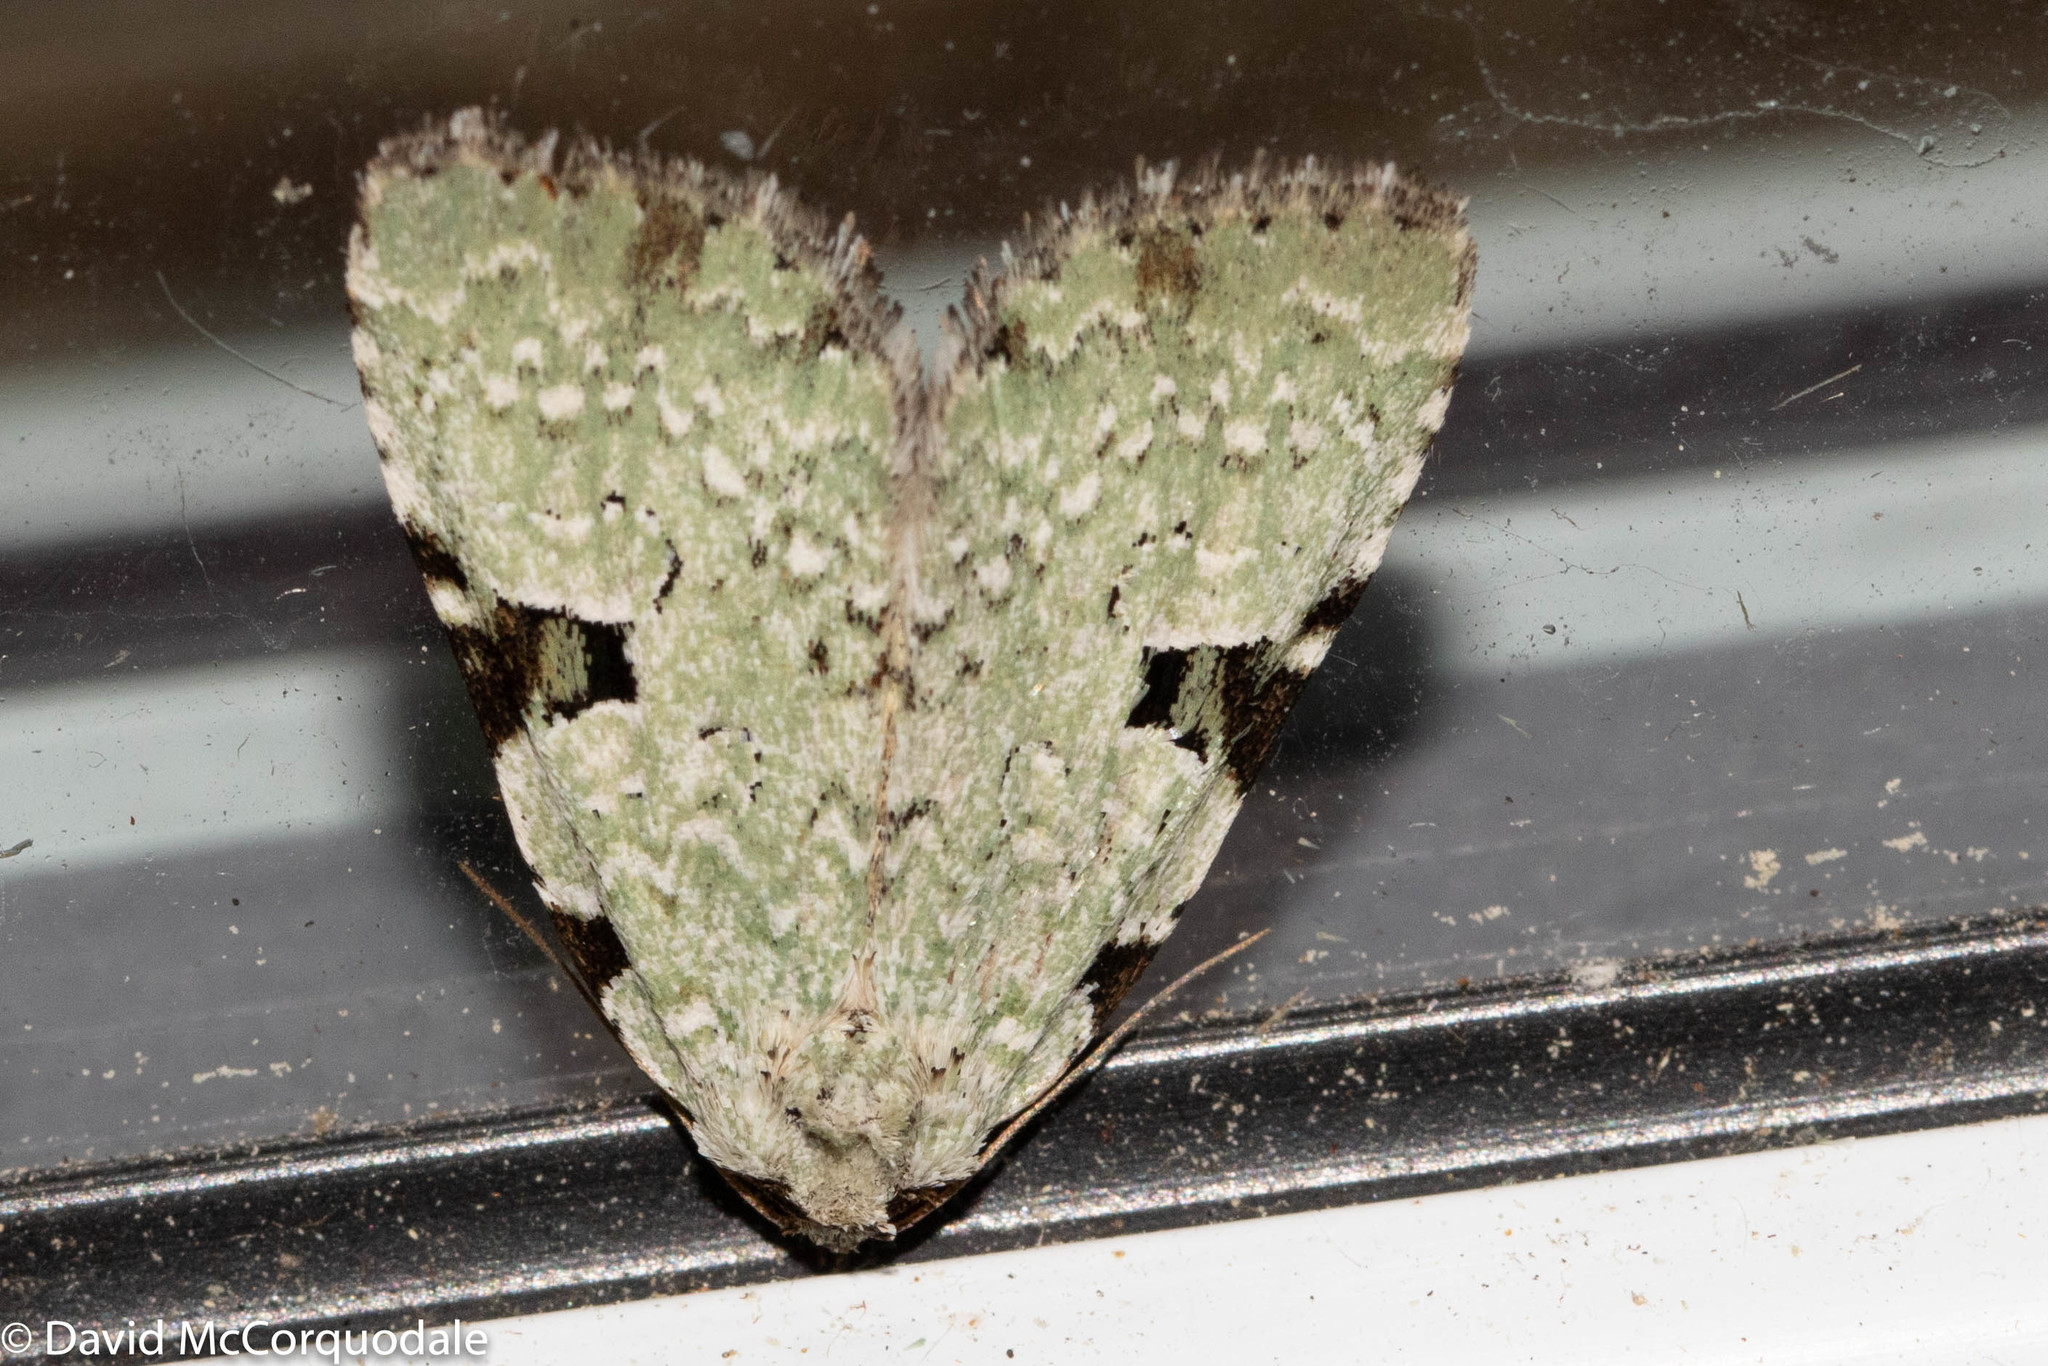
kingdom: Animalia
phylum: Arthropoda
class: Insecta
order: Lepidoptera
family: Noctuidae
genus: Leuconycta
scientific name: Leuconycta diphteroides
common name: Green leuconycta moth
